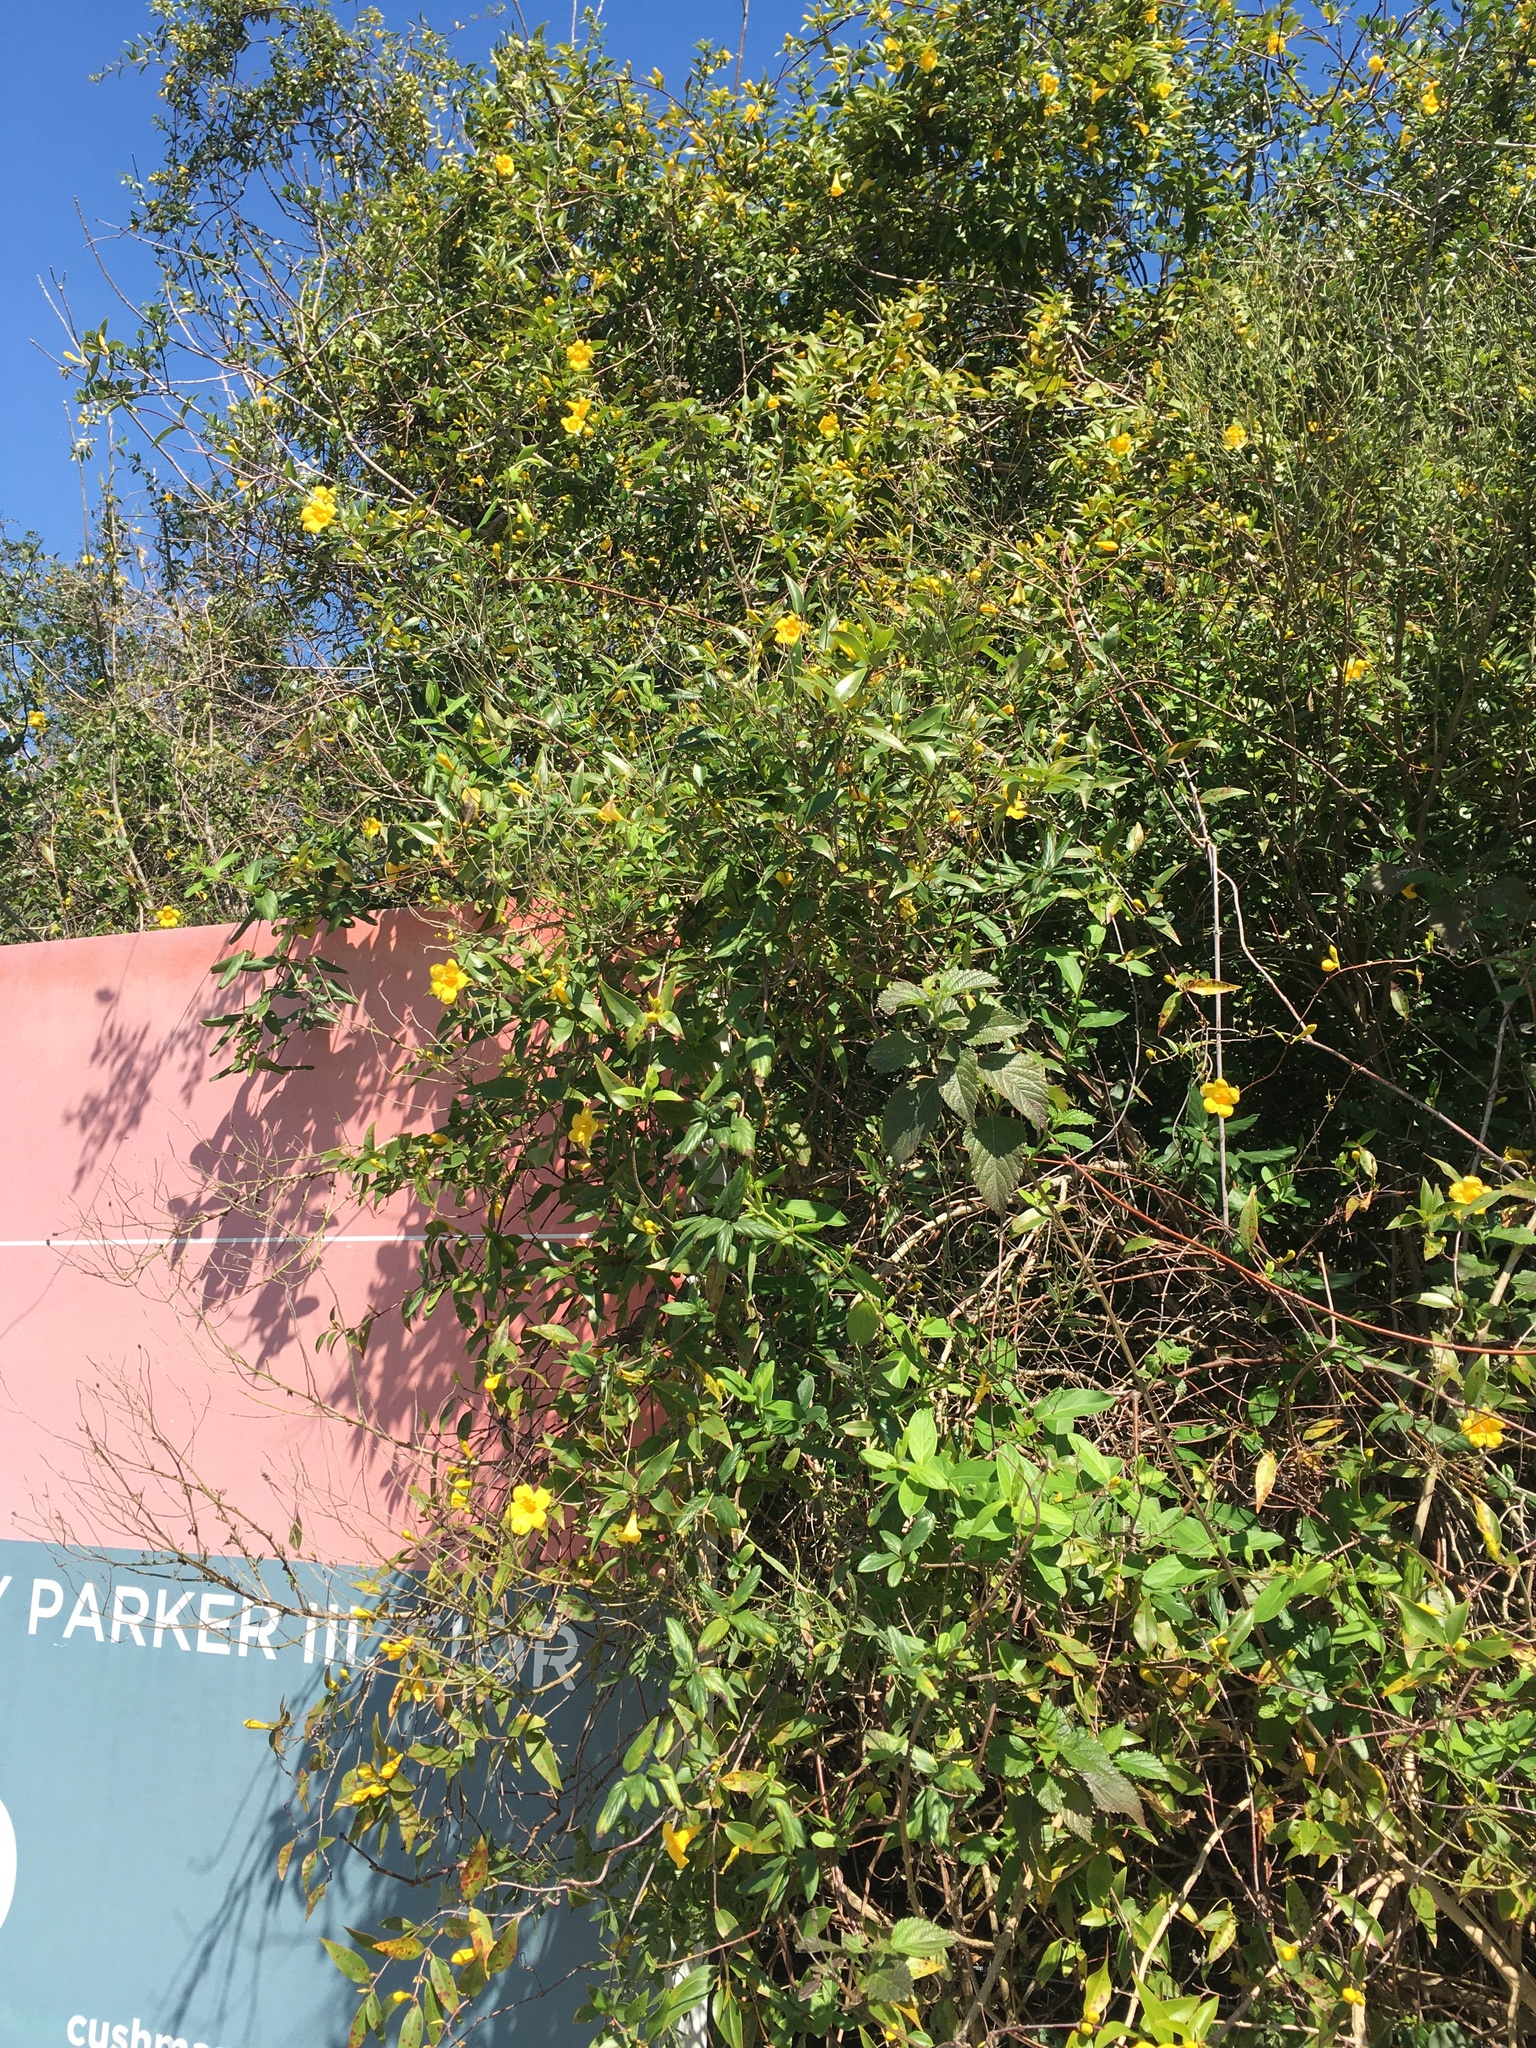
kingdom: Plantae
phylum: Tracheophyta
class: Magnoliopsida
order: Gentianales
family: Gelsemiaceae
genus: Gelsemium
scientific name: Gelsemium sempervirens
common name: Carolina-jasmine
